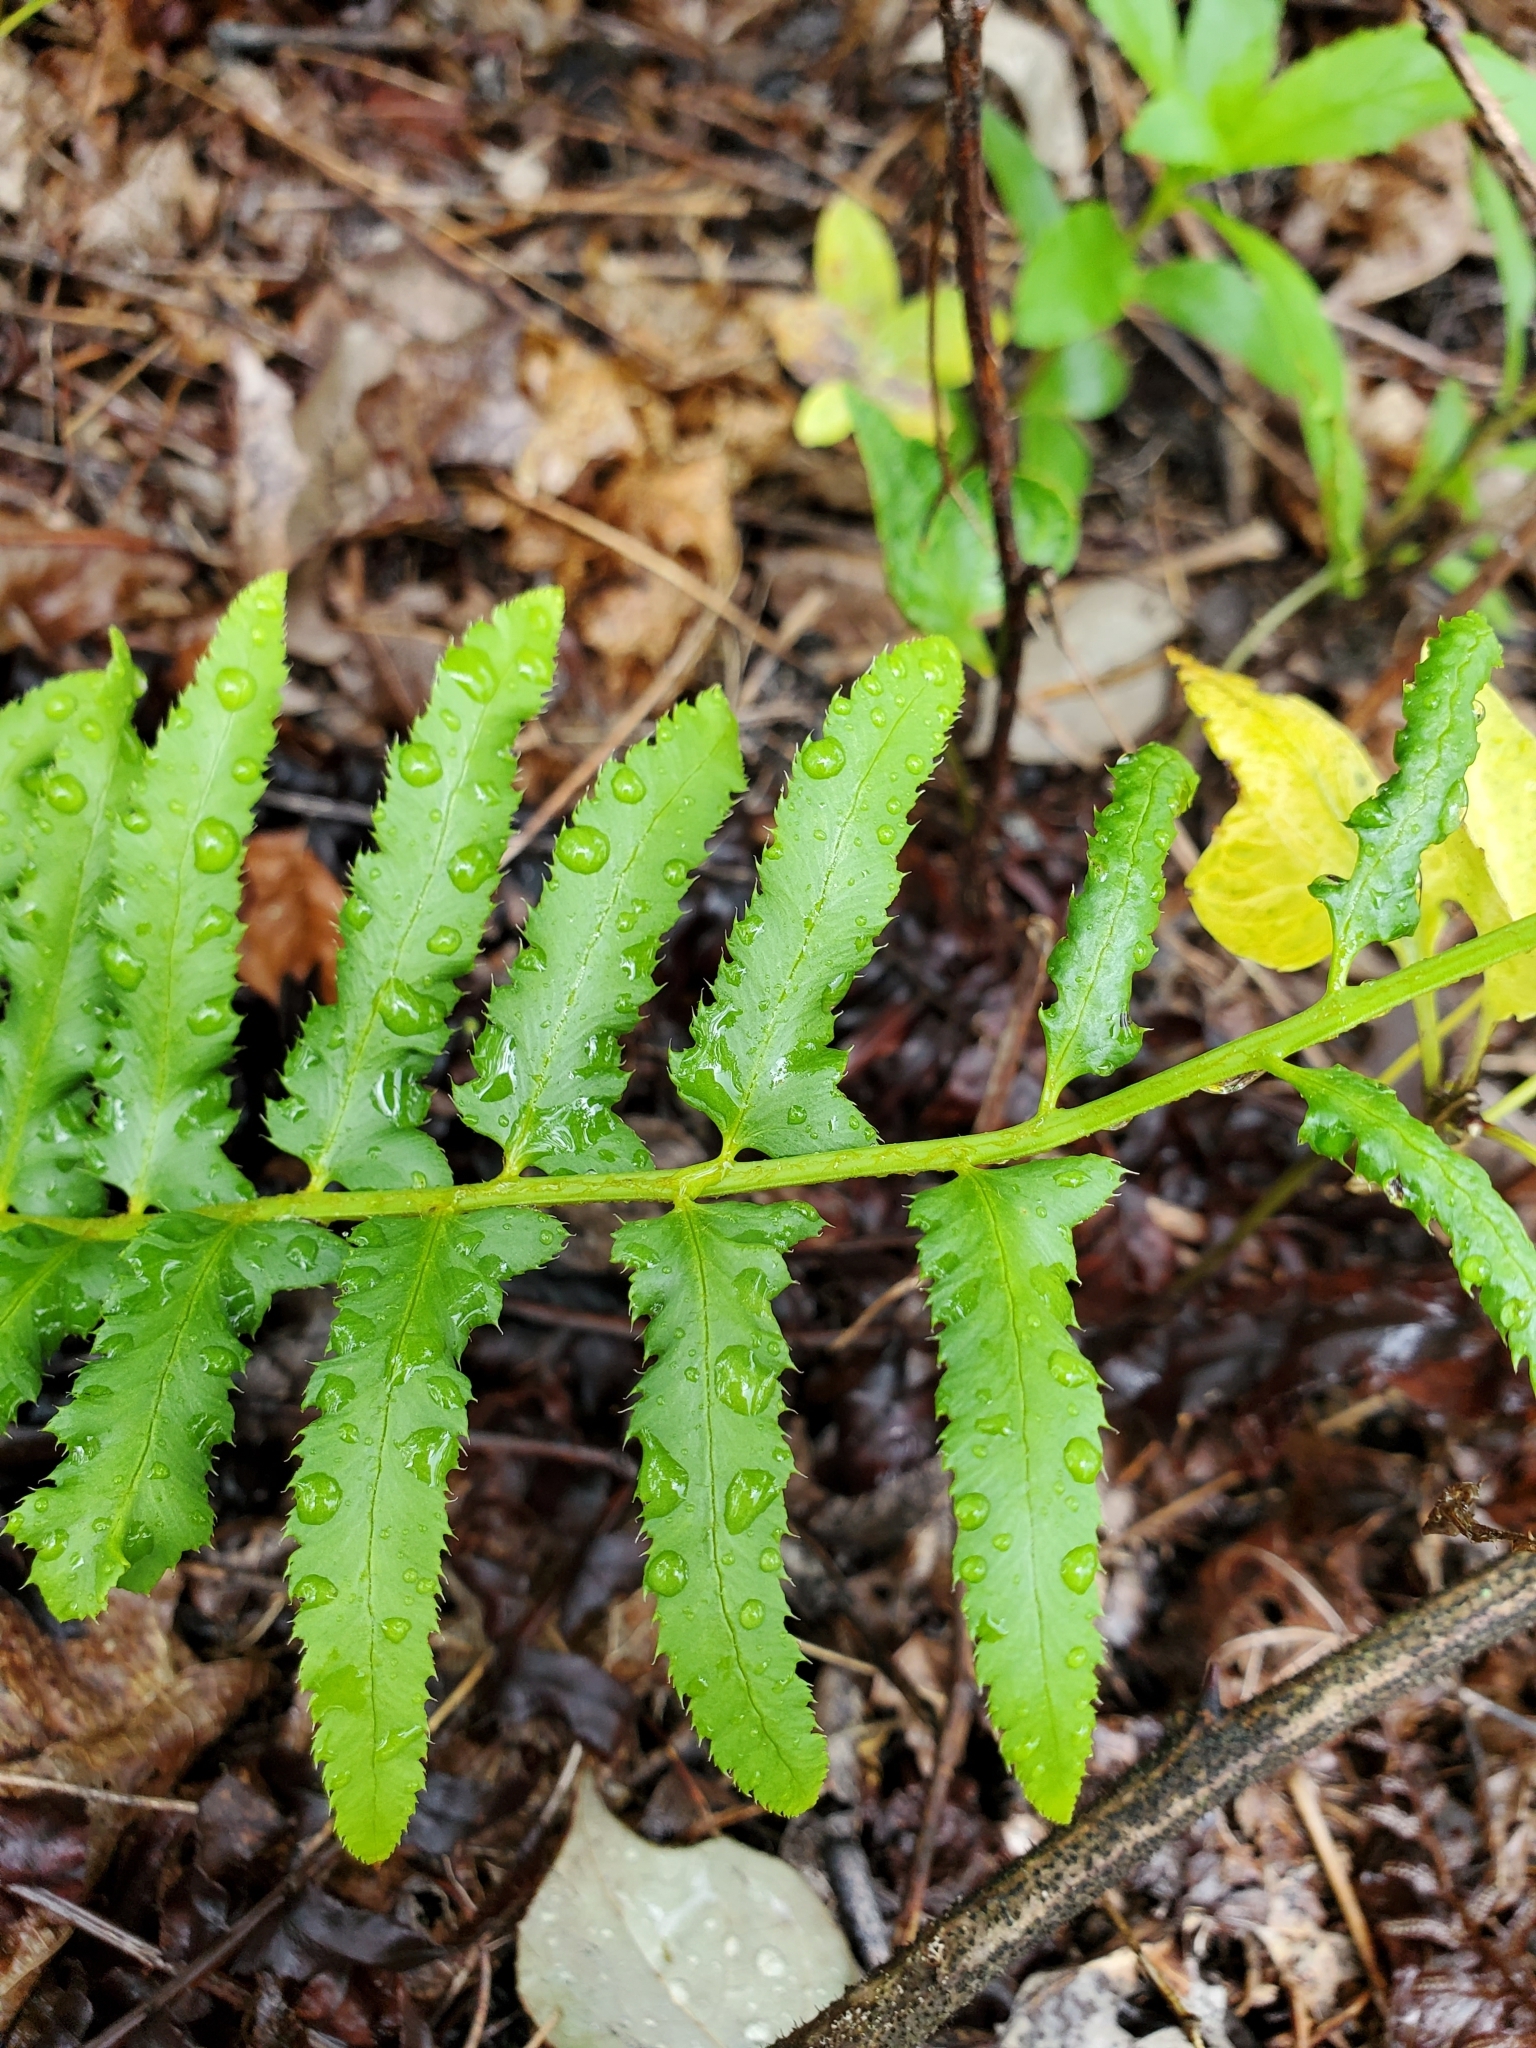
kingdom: Plantae
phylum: Tracheophyta
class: Polypodiopsida
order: Polypodiales
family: Dryopteridaceae
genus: Polystichum
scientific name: Polystichum acrostichoides
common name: Christmas fern
